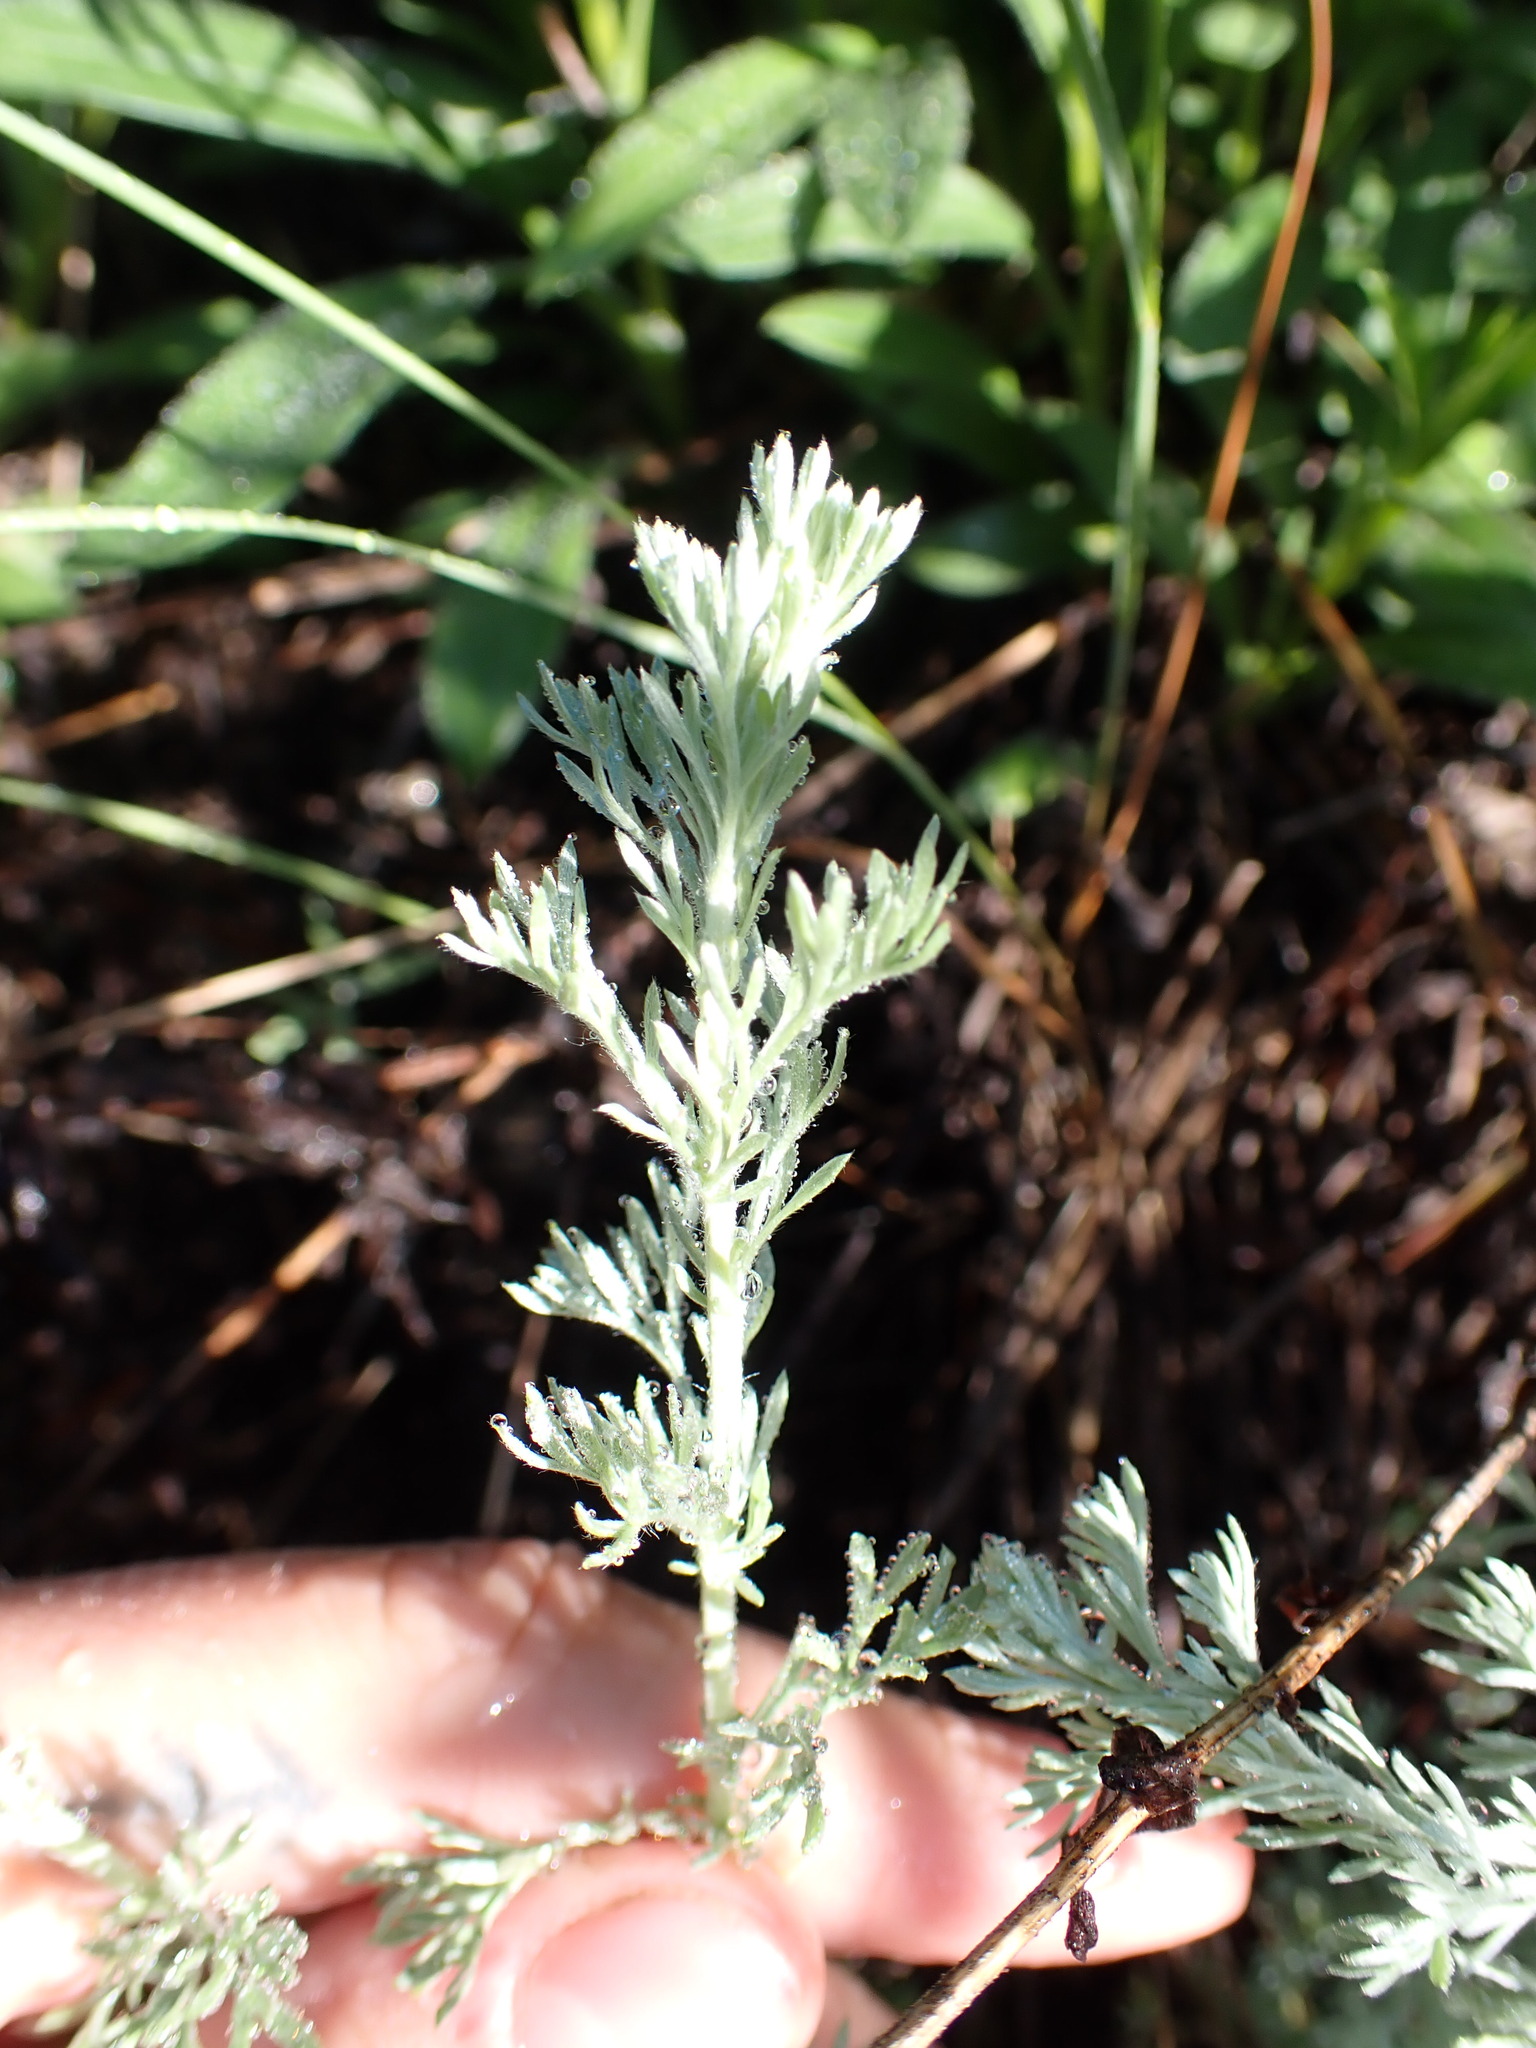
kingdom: Plantae
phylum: Tracheophyta
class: Magnoliopsida
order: Asterales
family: Asteraceae
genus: Artemisia
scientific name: Artemisia frigida
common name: Prairie sagewort
